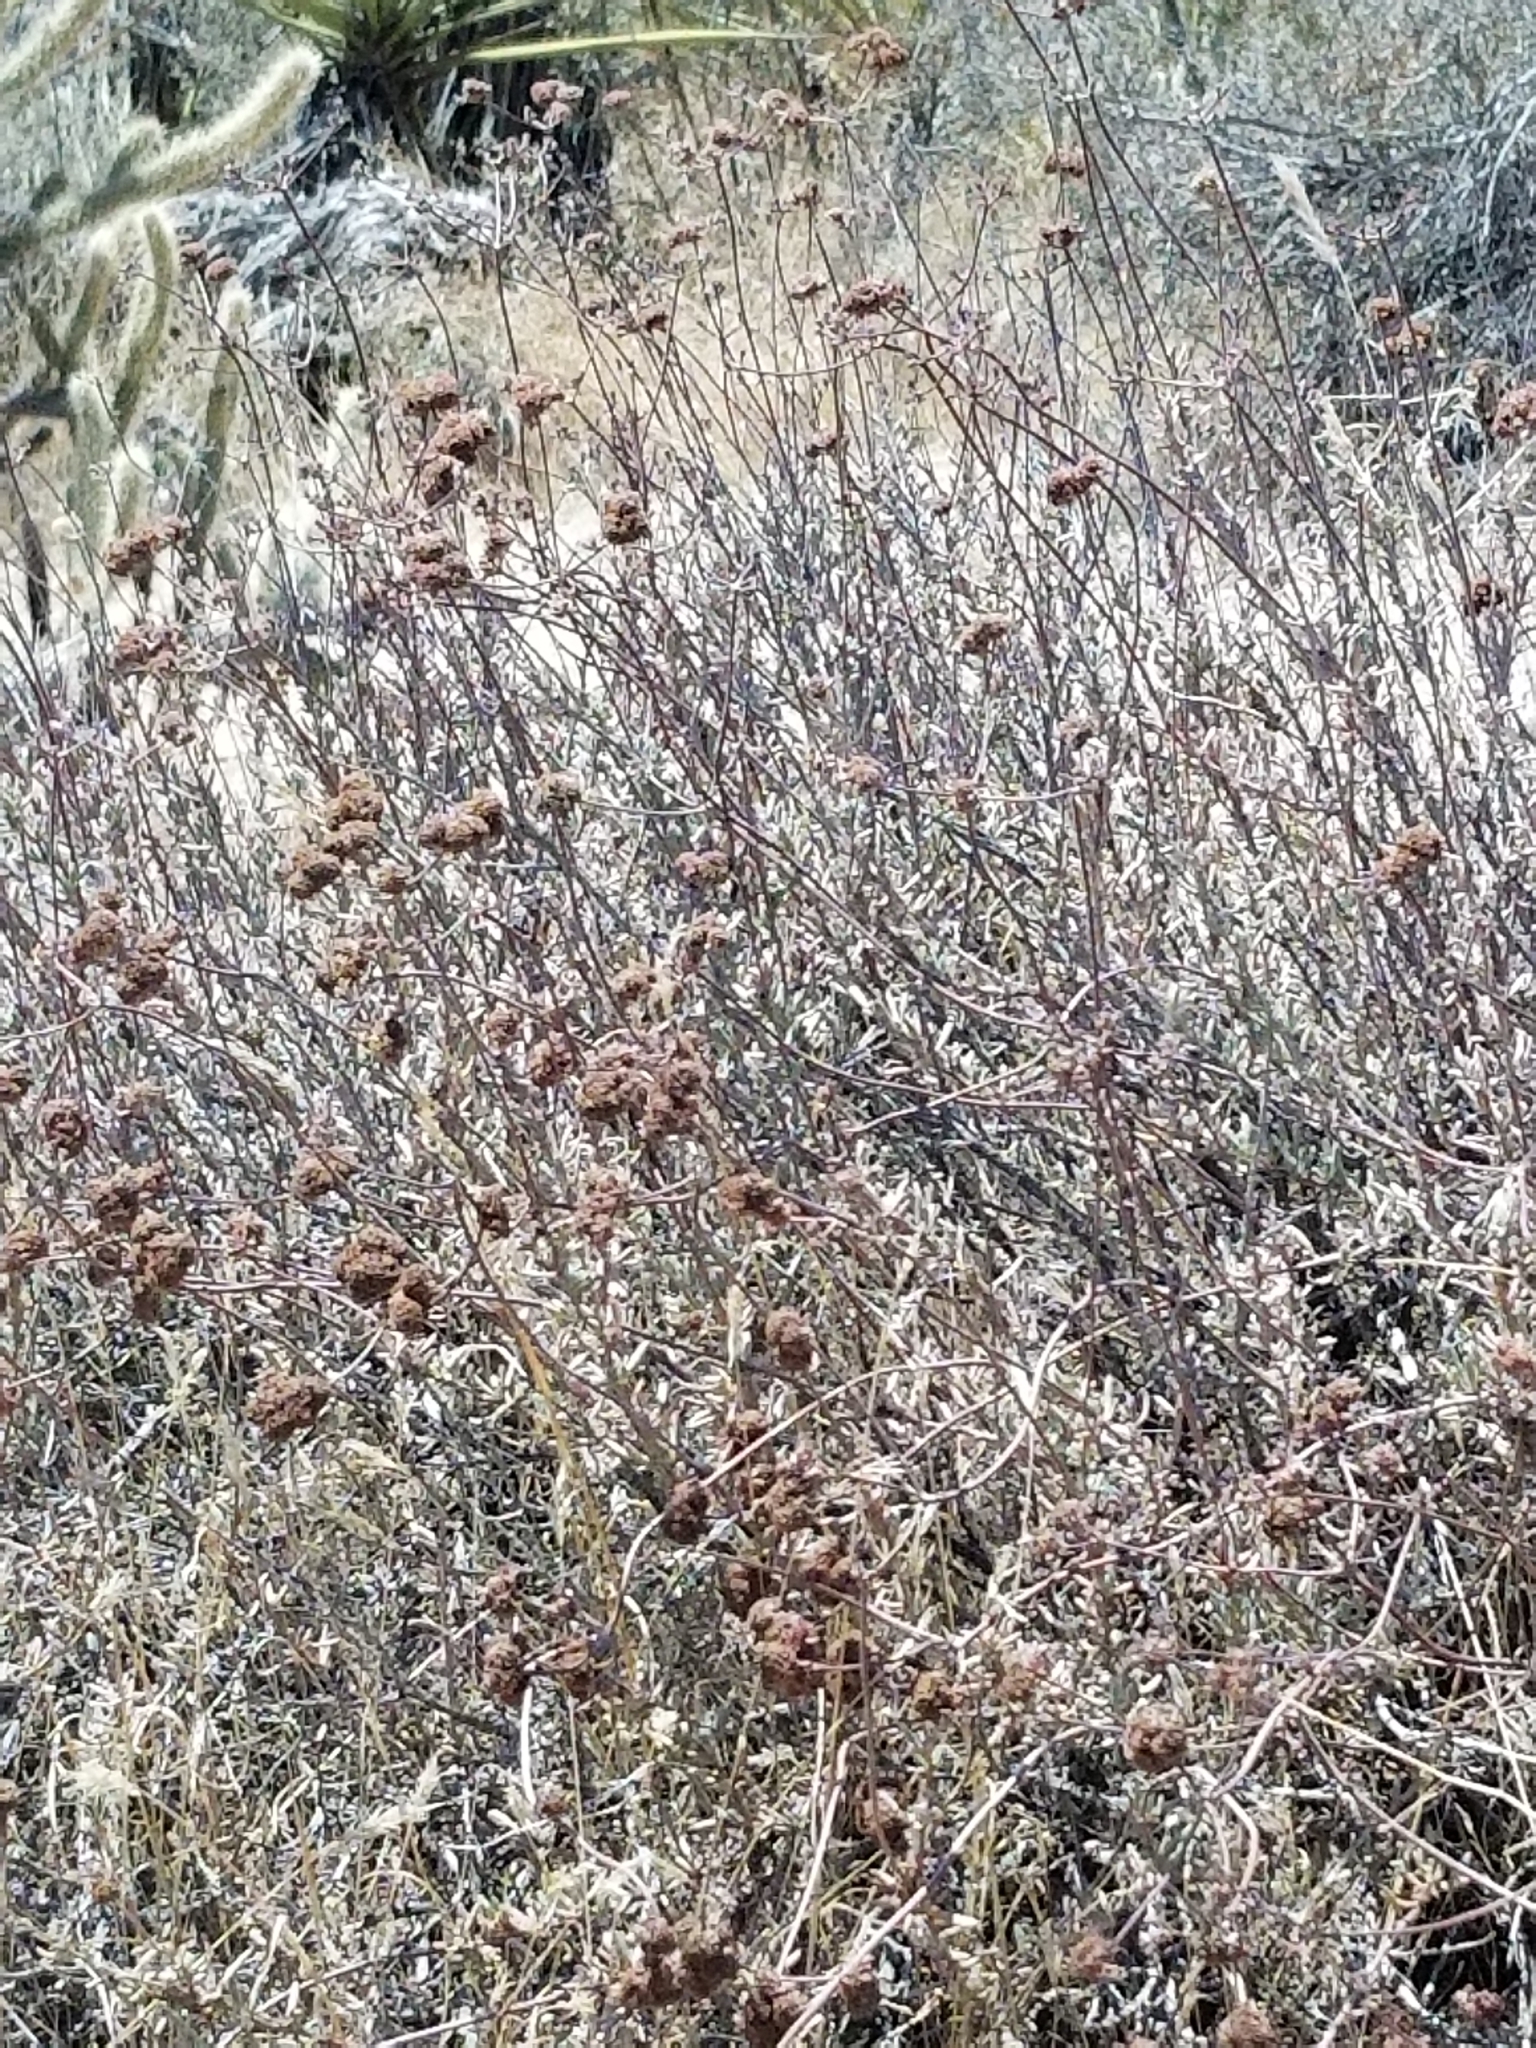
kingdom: Plantae
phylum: Tracheophyta
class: Magnoliopsida
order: Caryophyllales
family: Polygonaceae
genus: Eriogonum
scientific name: Eriogonum fasciculatum
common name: California wild buckwheat
